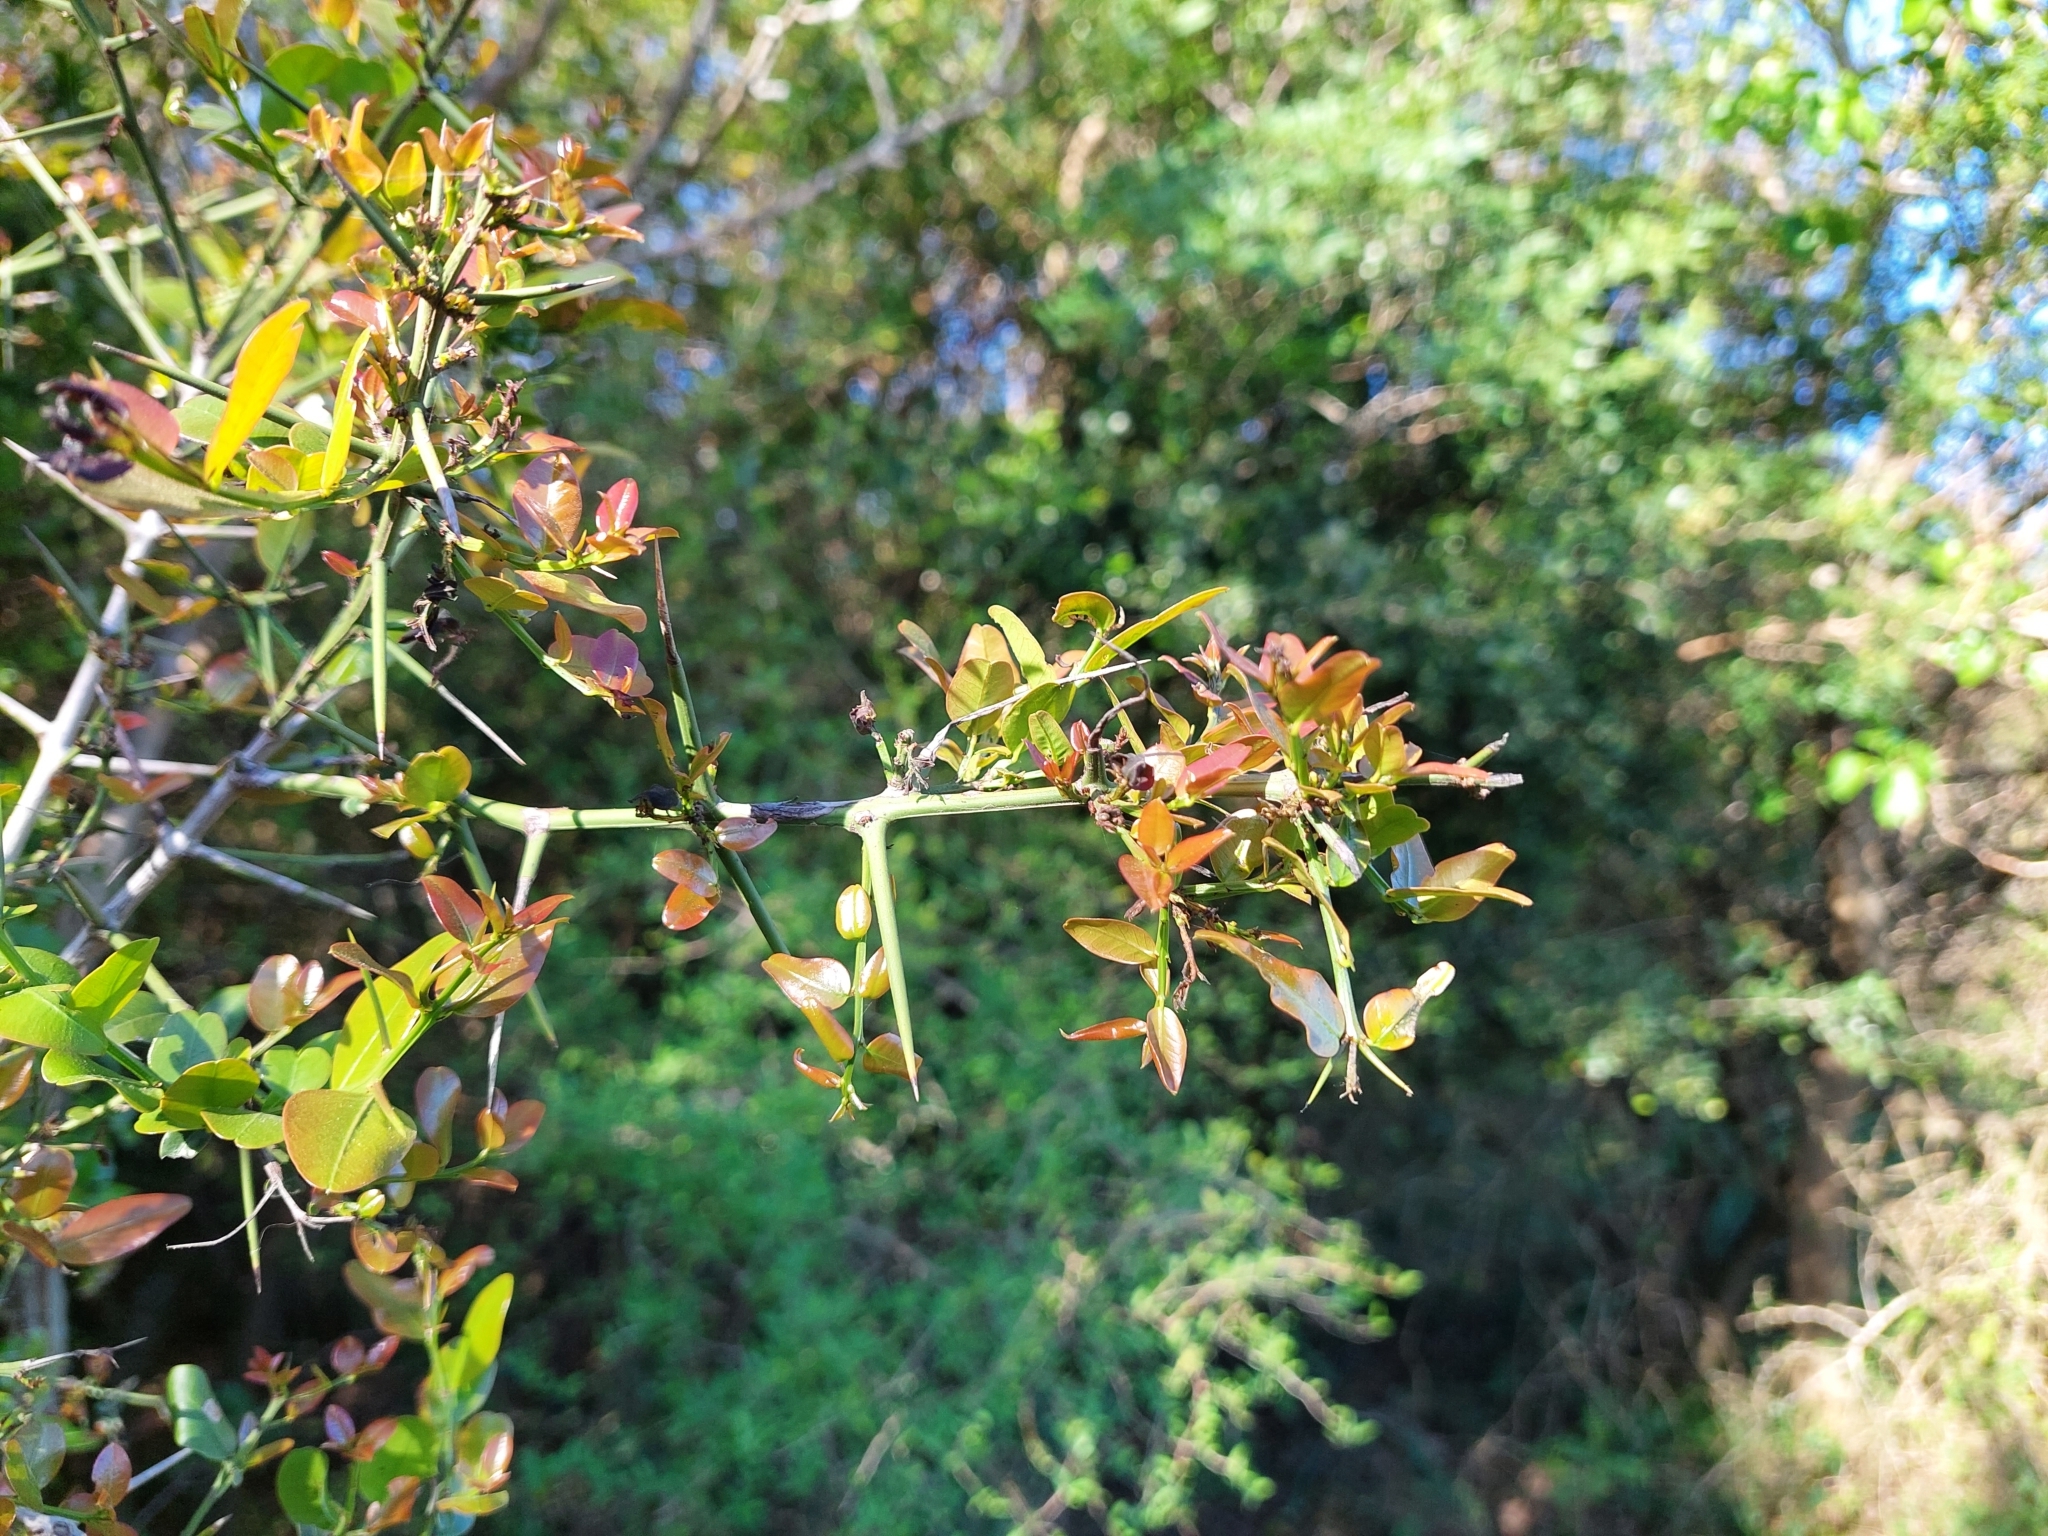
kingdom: Plantae
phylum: Tracheophyta
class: Magnoliopsida
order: Rosales
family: Rhamnaceae
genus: Scutia
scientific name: Scutia buxifolia
